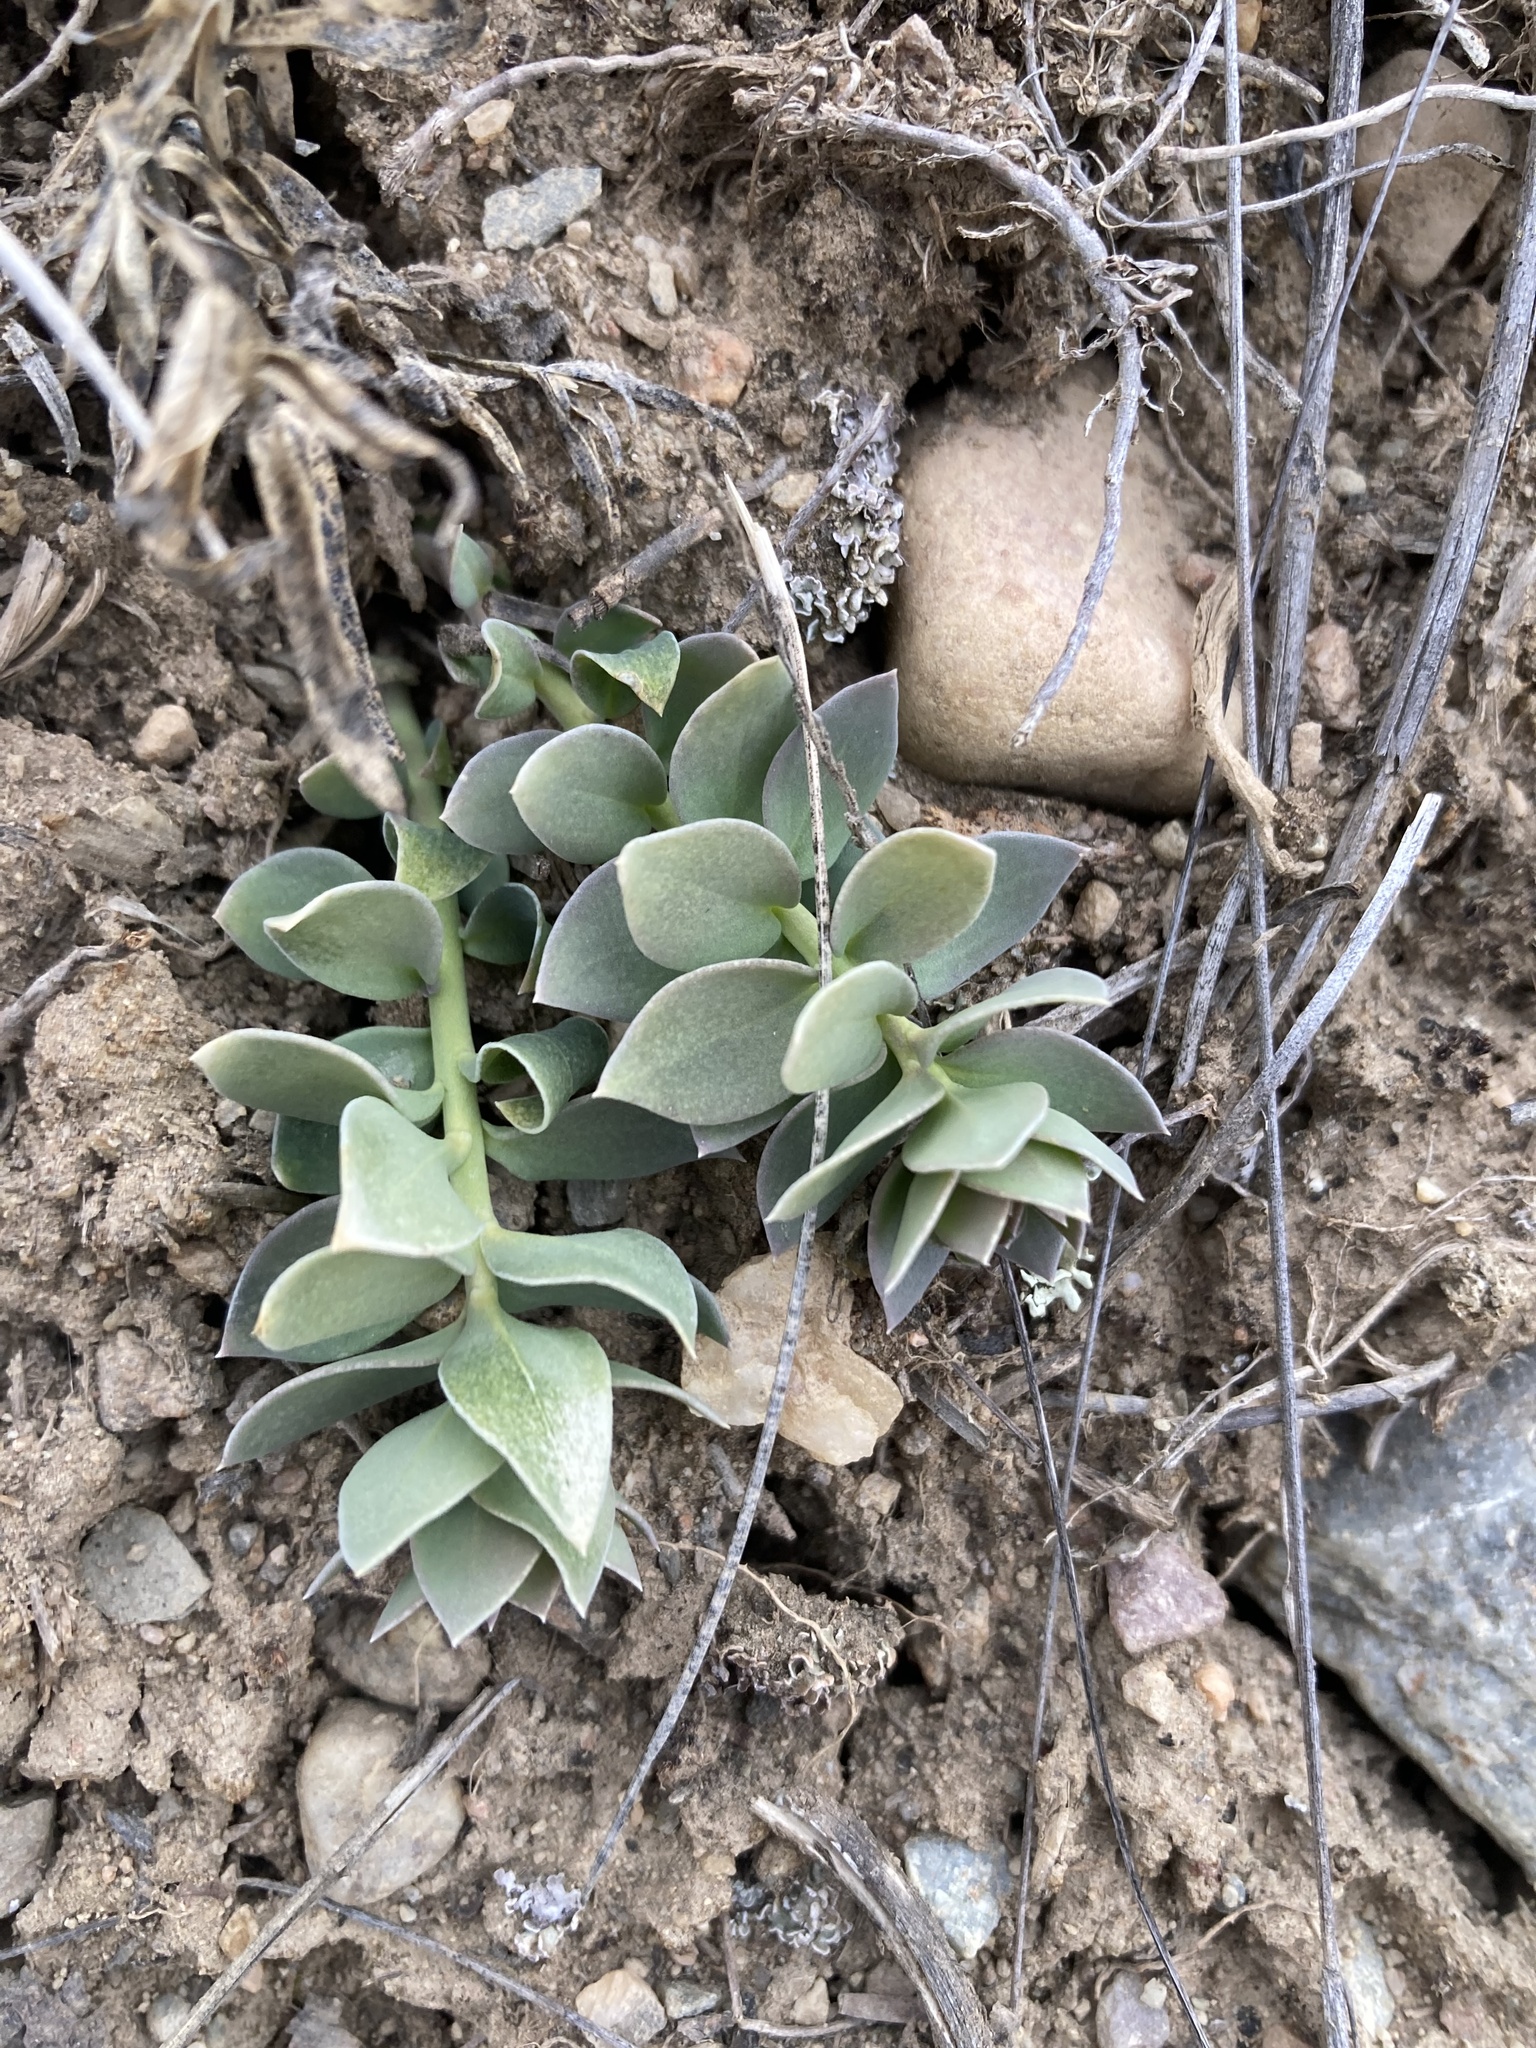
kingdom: Plantae
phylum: Tracheophyta
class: Magnoliopsida
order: Lamiales
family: Plantaginaceae
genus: Linaria
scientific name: Linaria dalmatica
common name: Dalmatian toadflax
